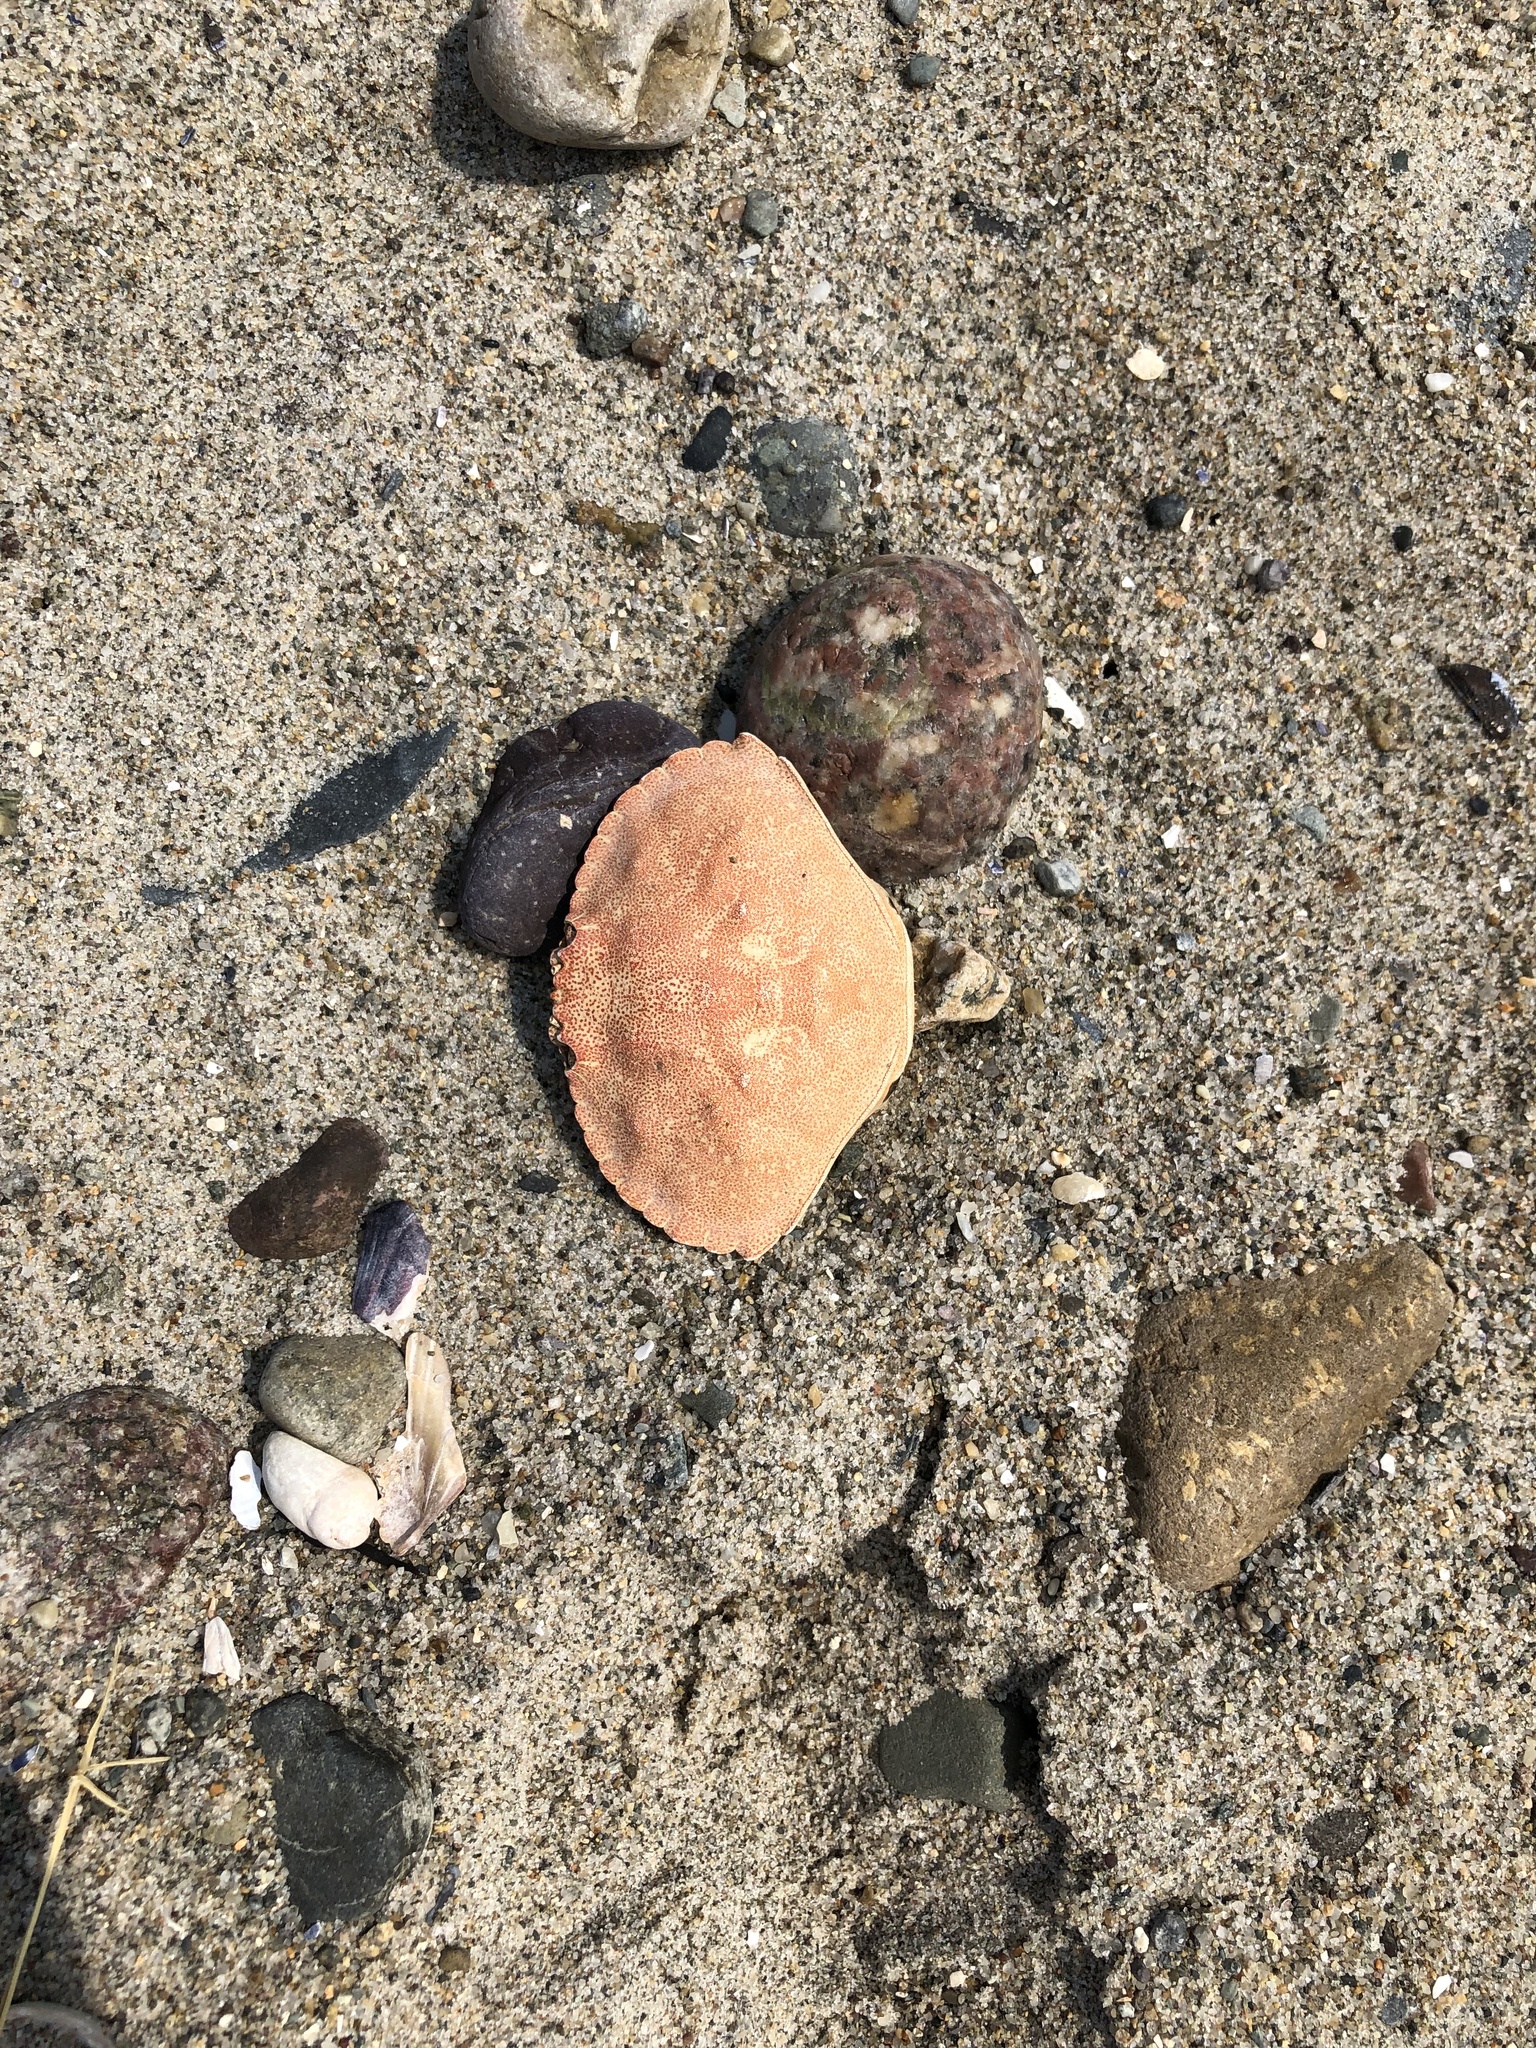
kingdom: Animalia
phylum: Arthropoda
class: Malacostraca
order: Decapoda
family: Cancridae
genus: Cancer
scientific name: Cancer irroratus
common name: Atlantic rock crab
